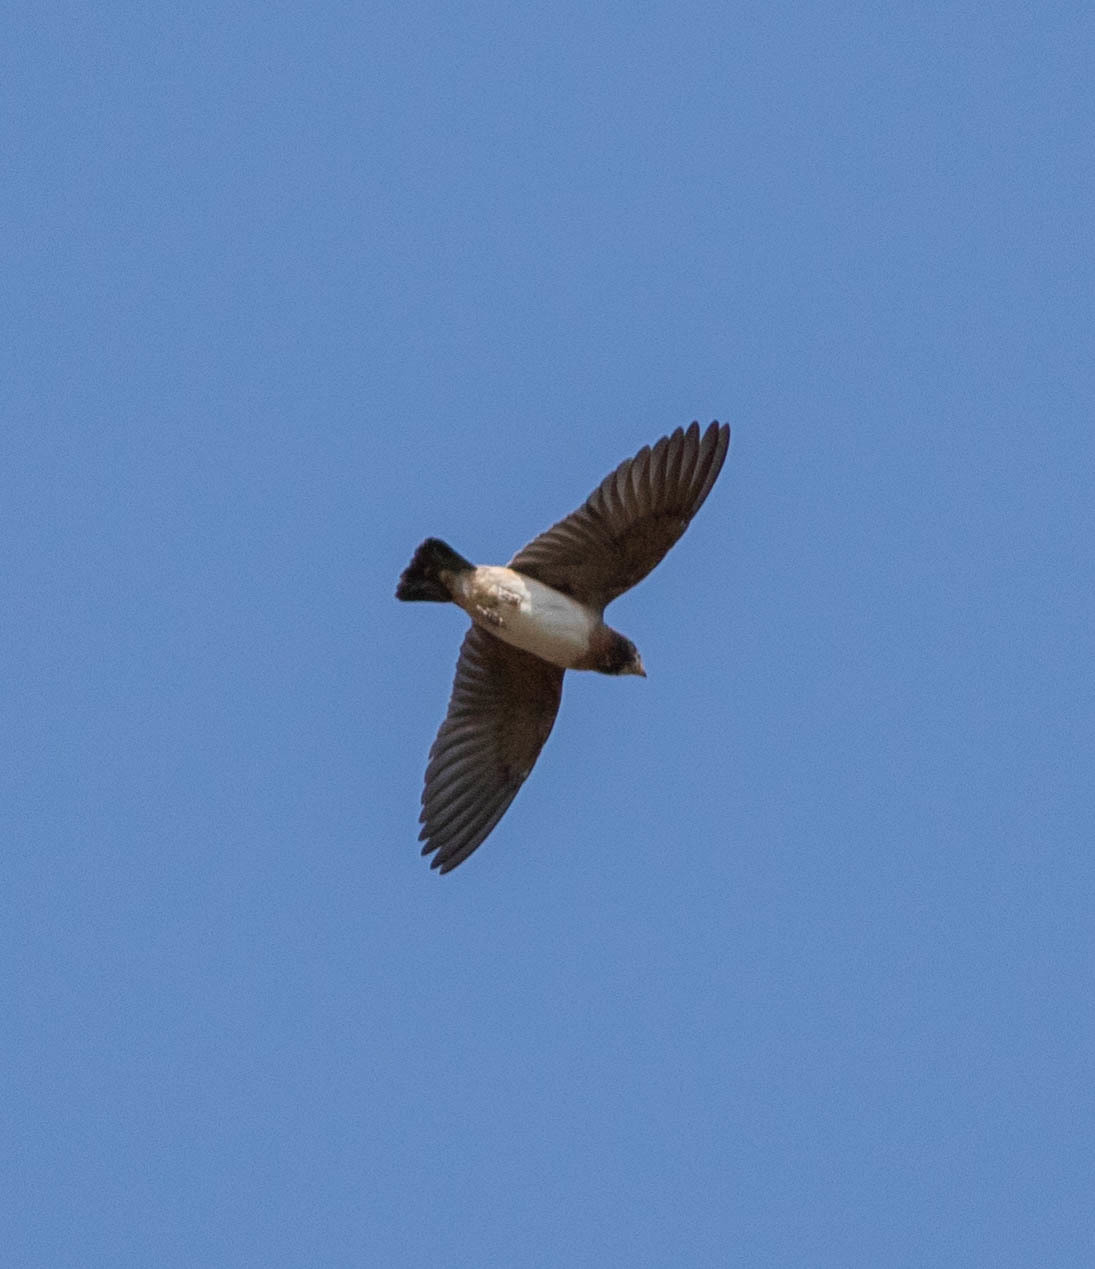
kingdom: Animalia
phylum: Chordata
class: Aves
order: Passeriformes
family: Hirundinidae
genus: Petrochelidon
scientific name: Petrochelidon pyrrhonota
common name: American cliff swallow
